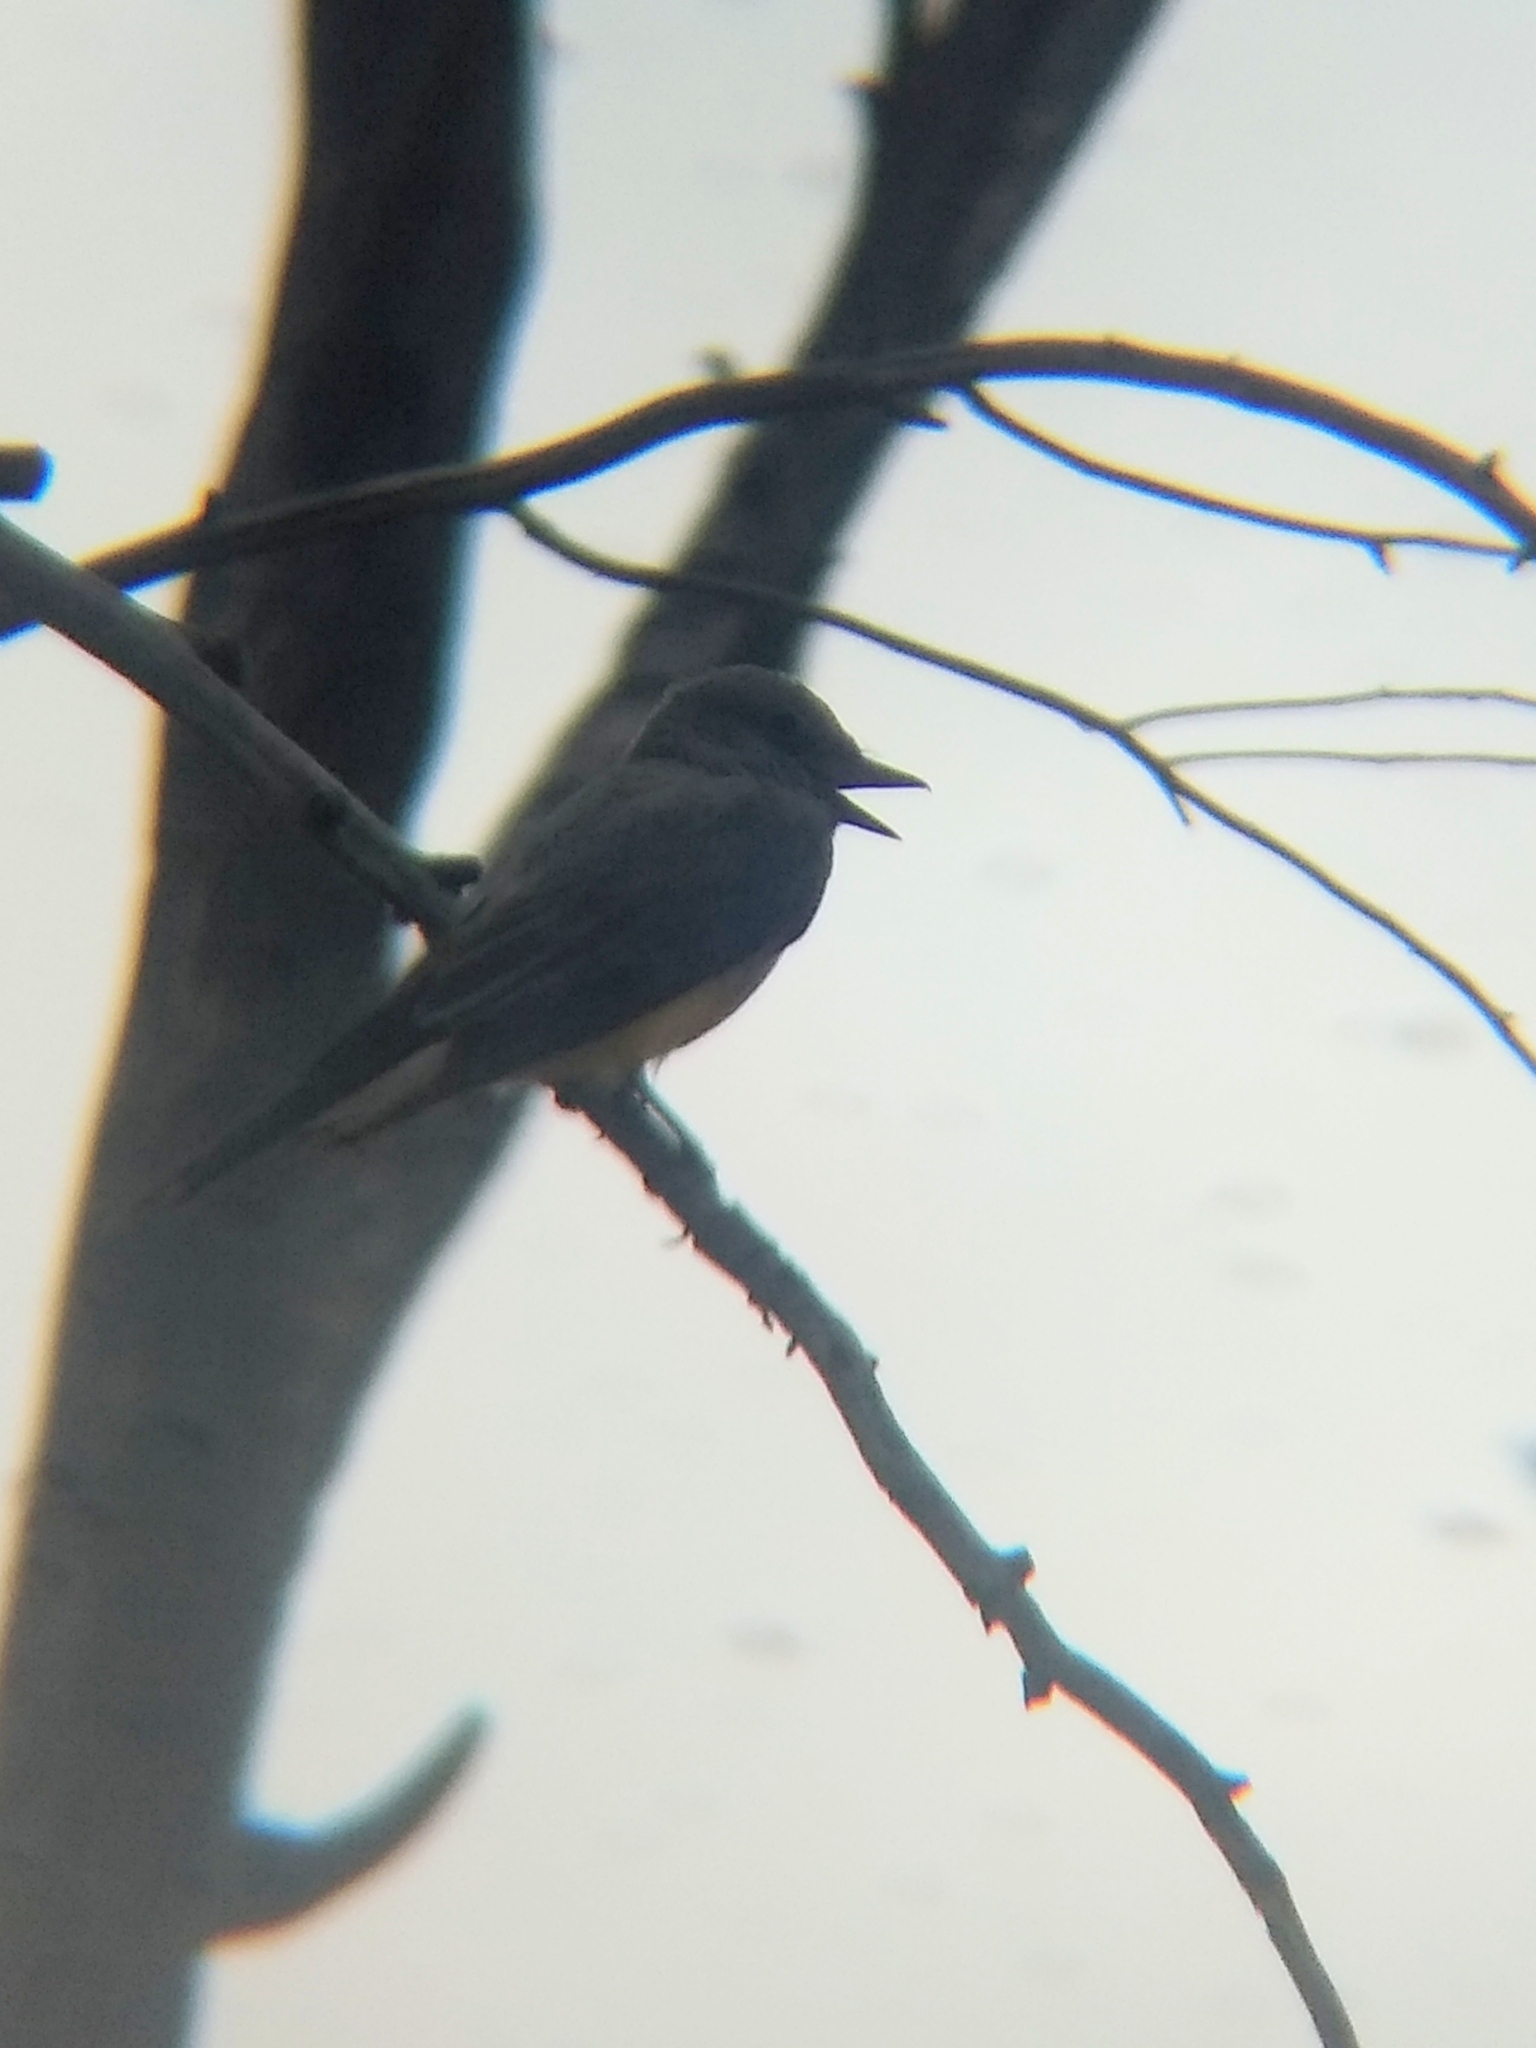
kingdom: Animalia
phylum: Chordata
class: Aves
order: Passeriformes
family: Tyrannidae
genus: Tyrannus
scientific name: Tyrannus
